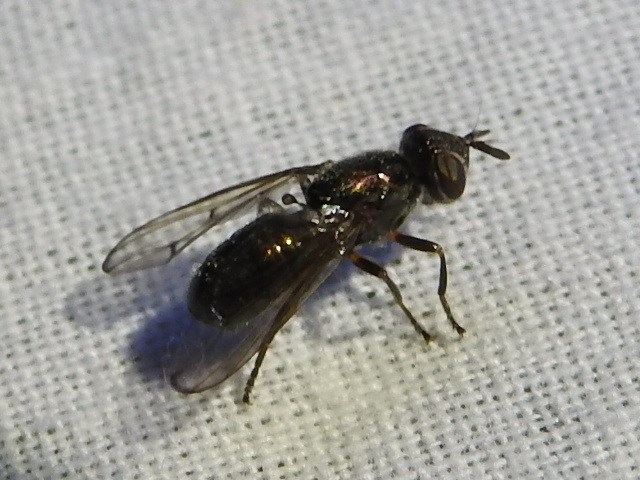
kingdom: Animalia
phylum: Arthropoda
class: Insecta
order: Diptera
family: Platystomatidae
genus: Senopterina
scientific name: Senopterina foxleei
